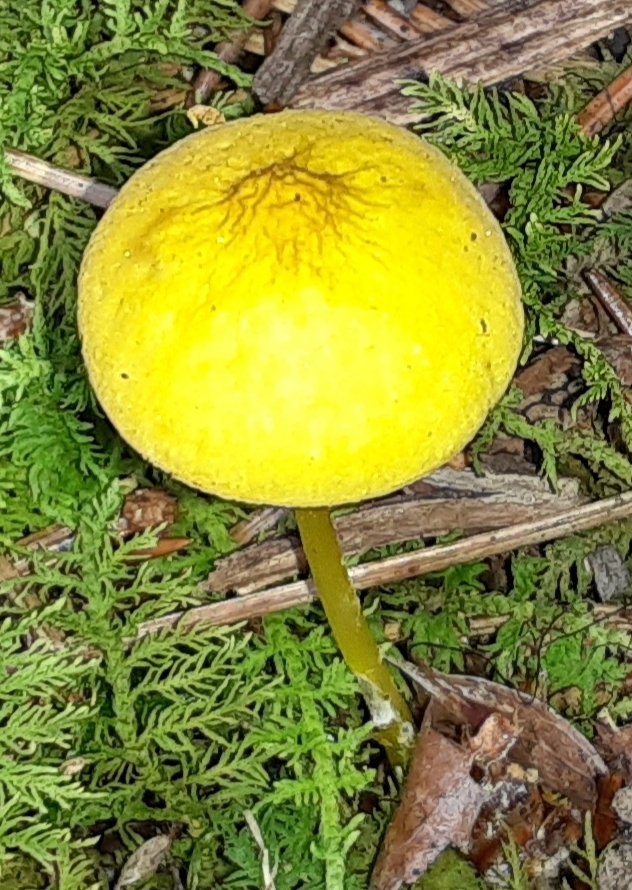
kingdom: Fungi
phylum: Basidiomycota
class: Agaricomycetes
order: Agaricales
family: Pluteaceae
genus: Pluteus
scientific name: Pluteus chrysophlebius
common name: Yellow deer mushroom
